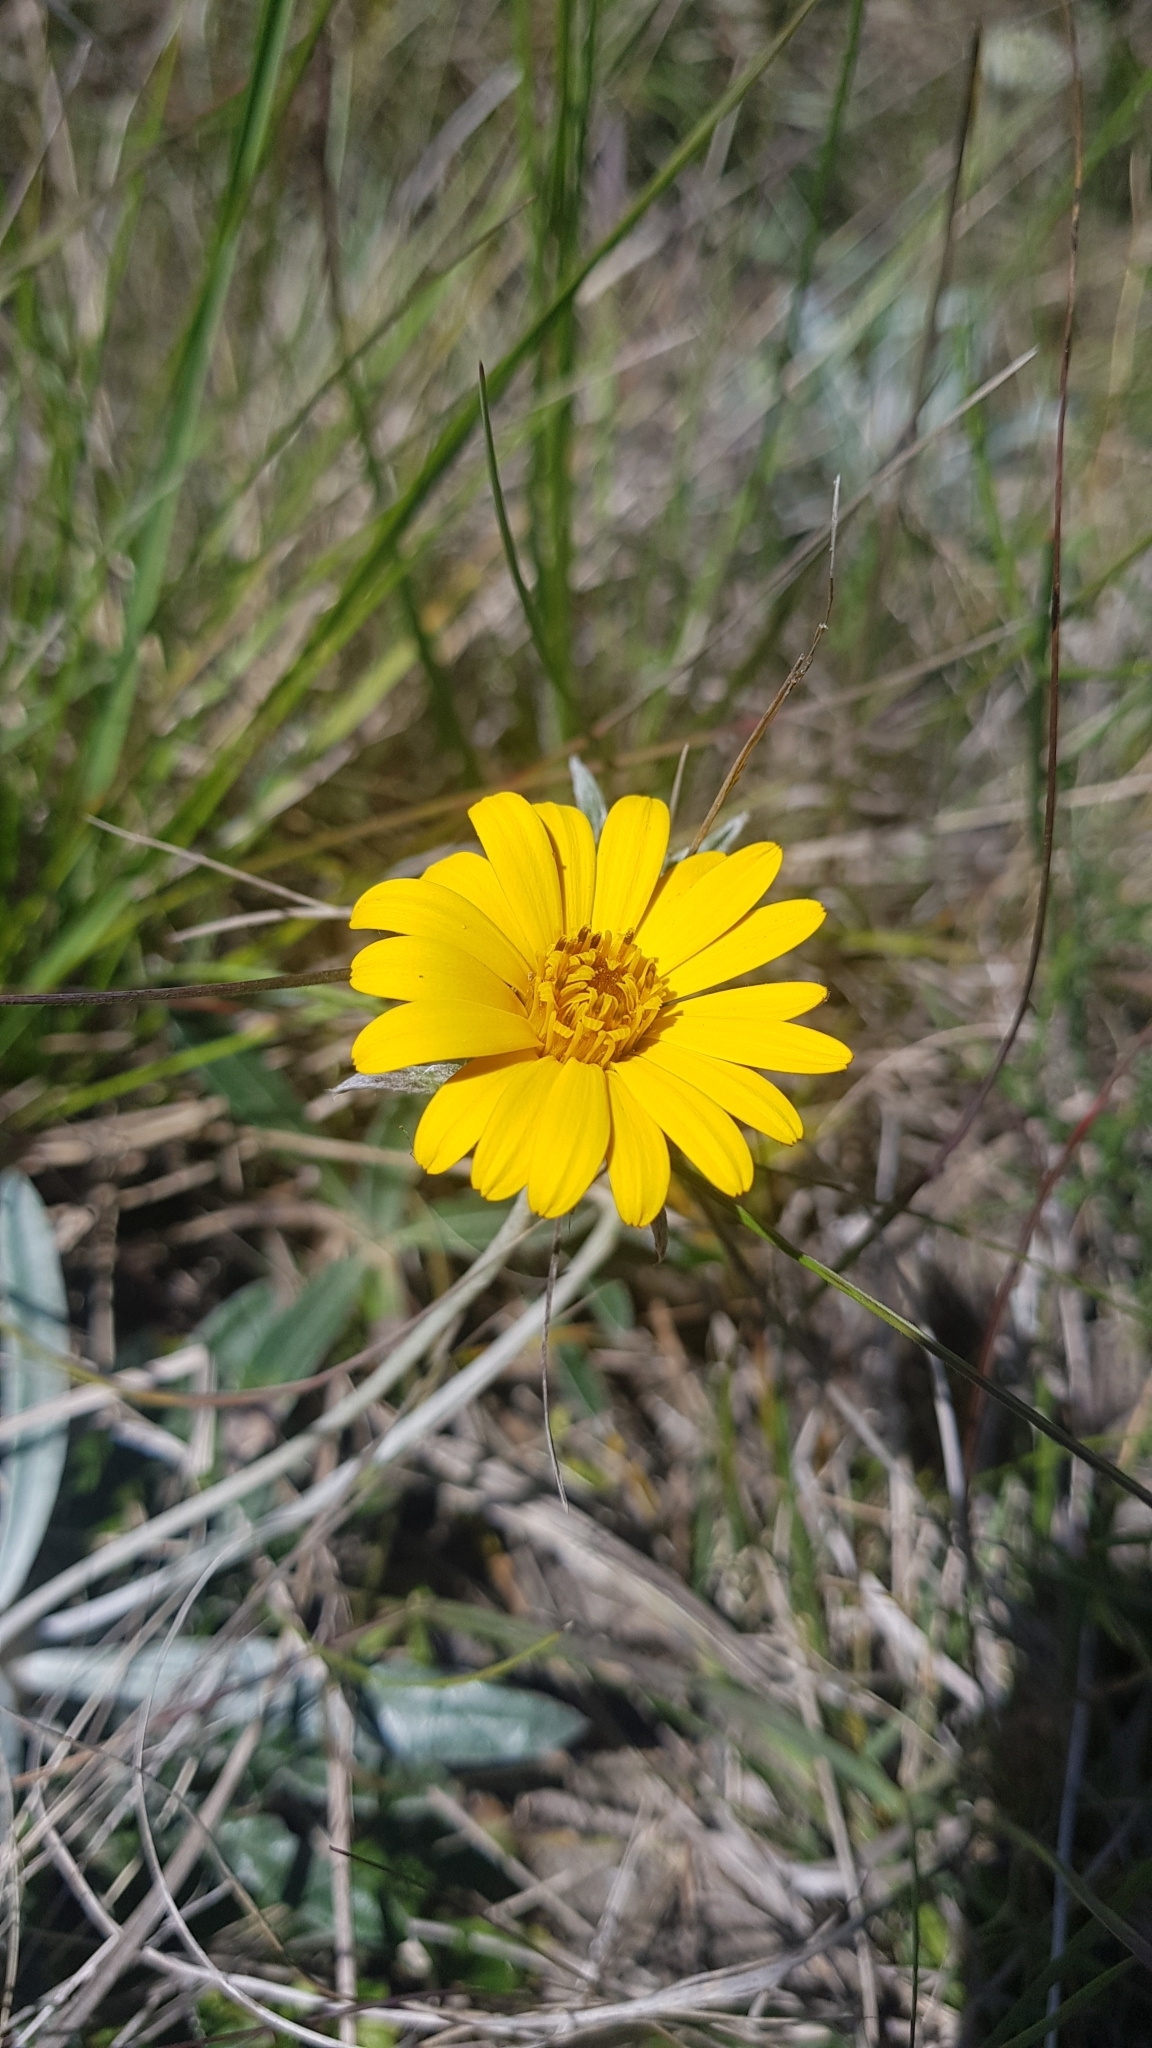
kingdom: Plantae
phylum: Tracheophyta
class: Magnoliopsida
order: Asterales
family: Asteraceae
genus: Trichocline
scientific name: Trichocline incana
